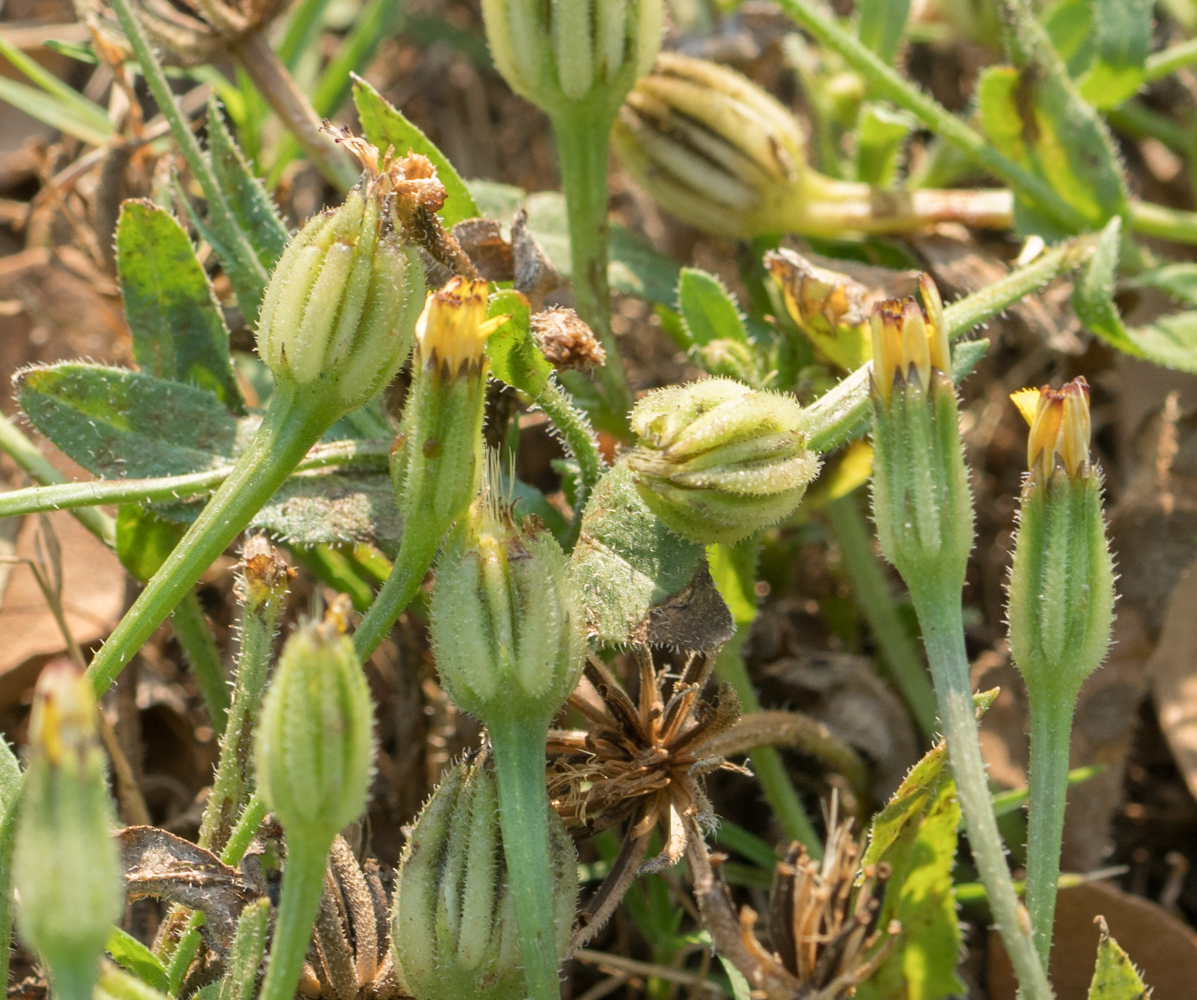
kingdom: Plantae
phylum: Tracheophyta
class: Magnoliopsida
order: Asterales
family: Asteraceae
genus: Hedypnois
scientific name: Hedypnois rhagadioloides
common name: Cretan weed
